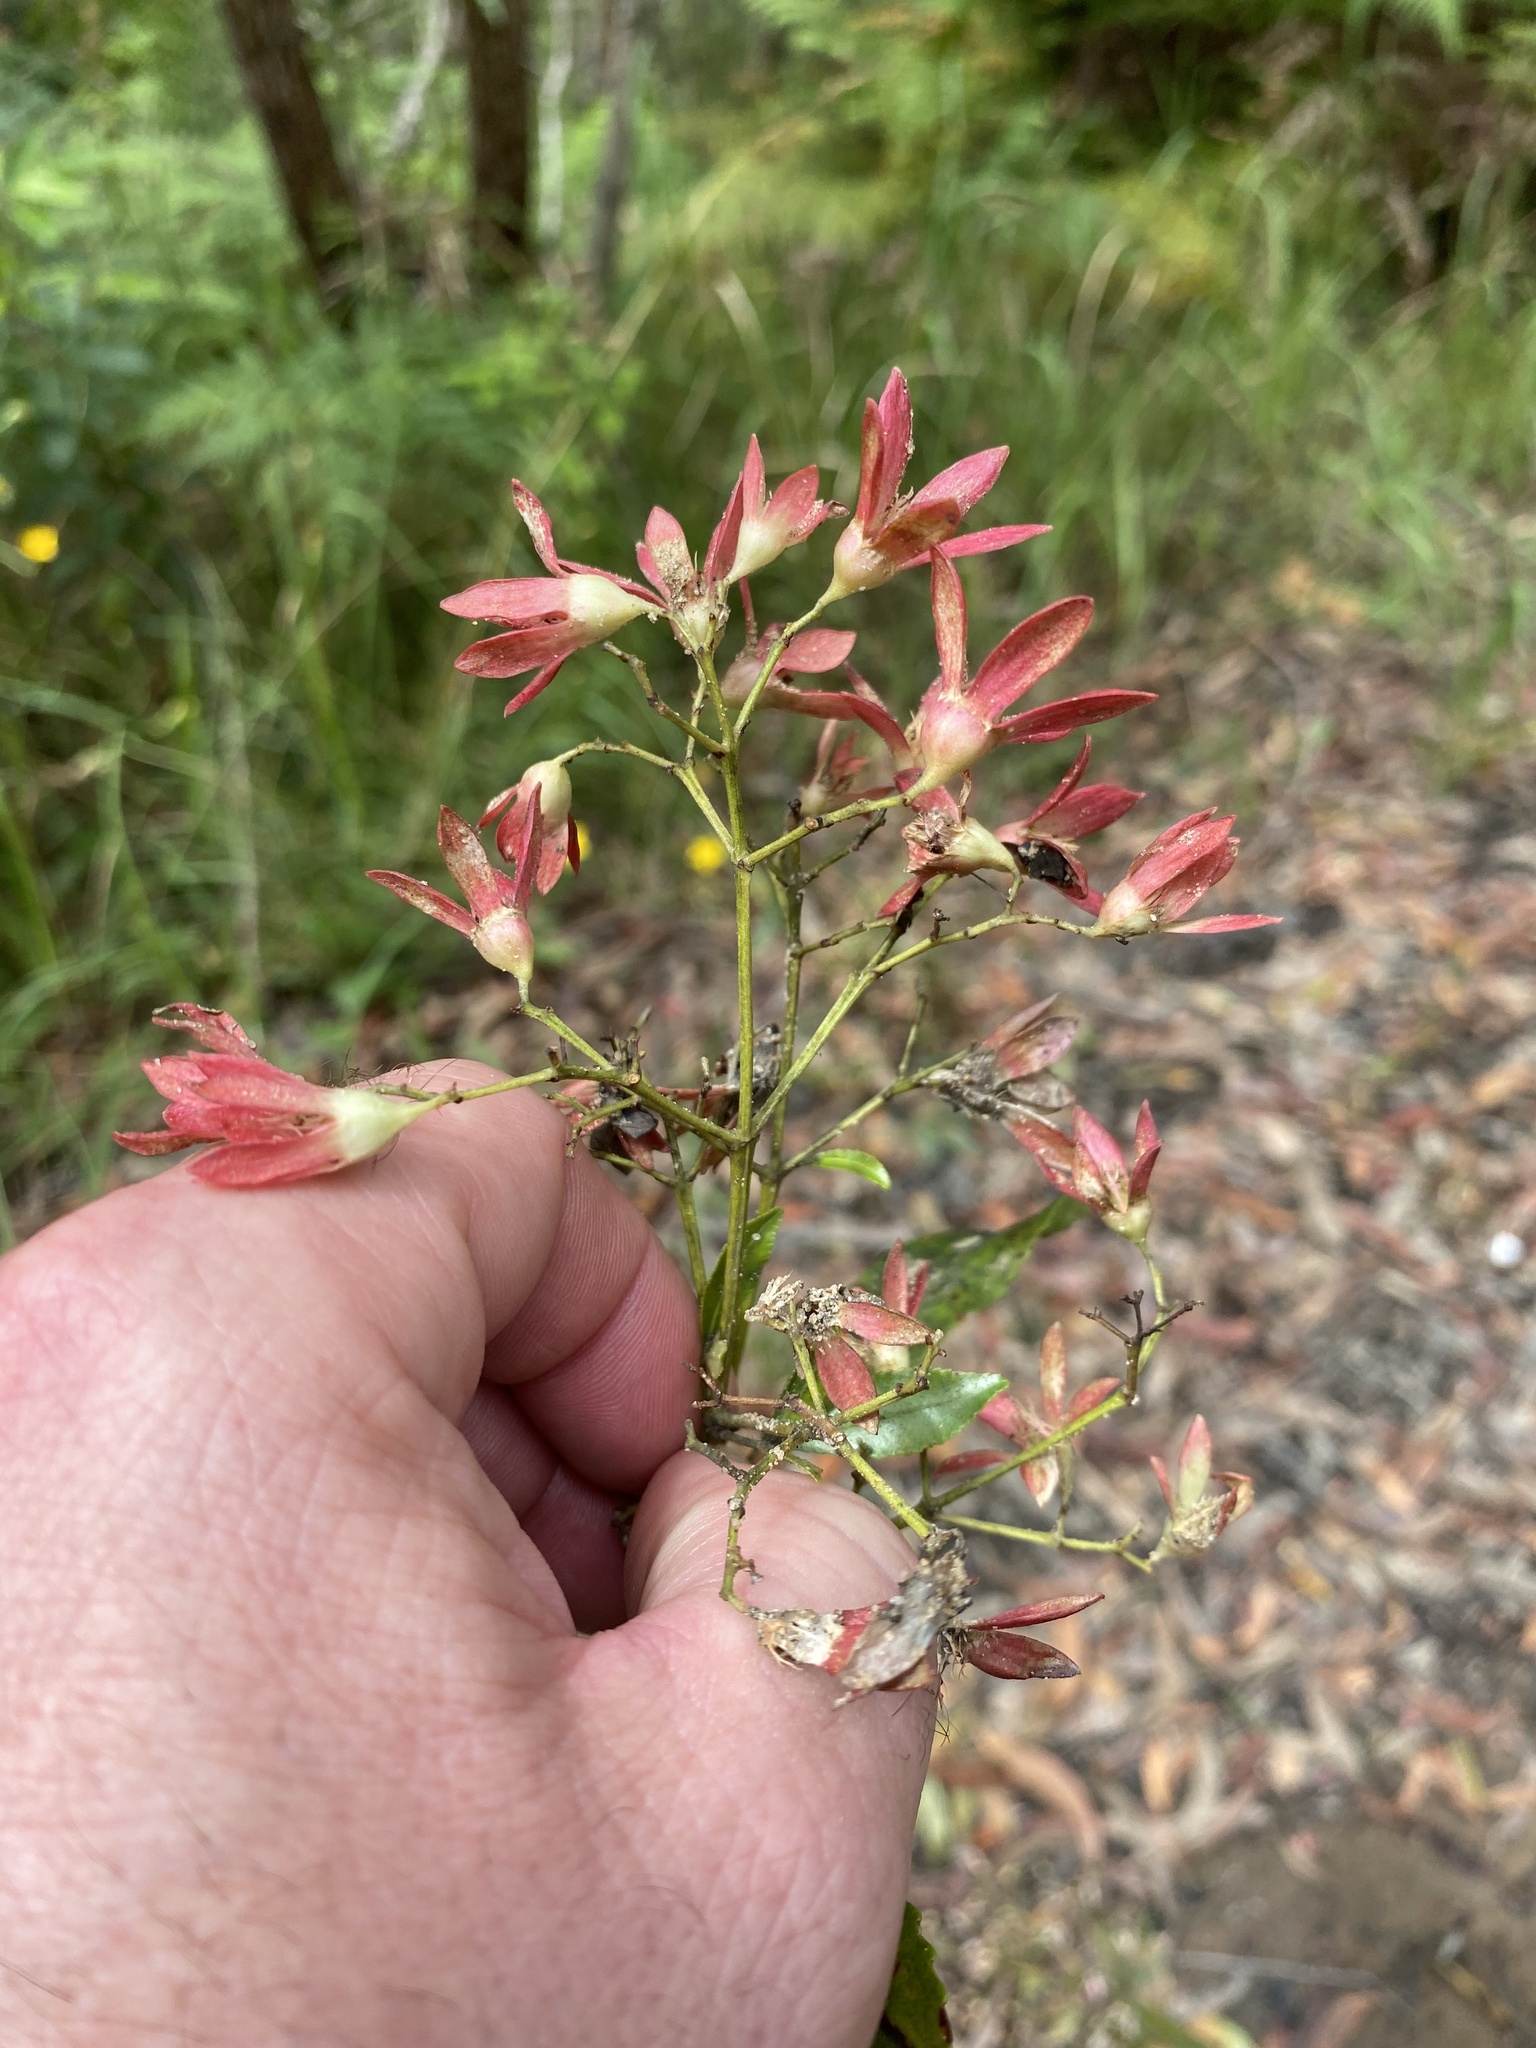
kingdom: Plantae
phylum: Tracheophyta
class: Magnoliopsida
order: Oxalidales
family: Cunoniaceae
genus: Ceratopetalum
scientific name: Ceratopetalum gummiferum
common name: Christmasbush
